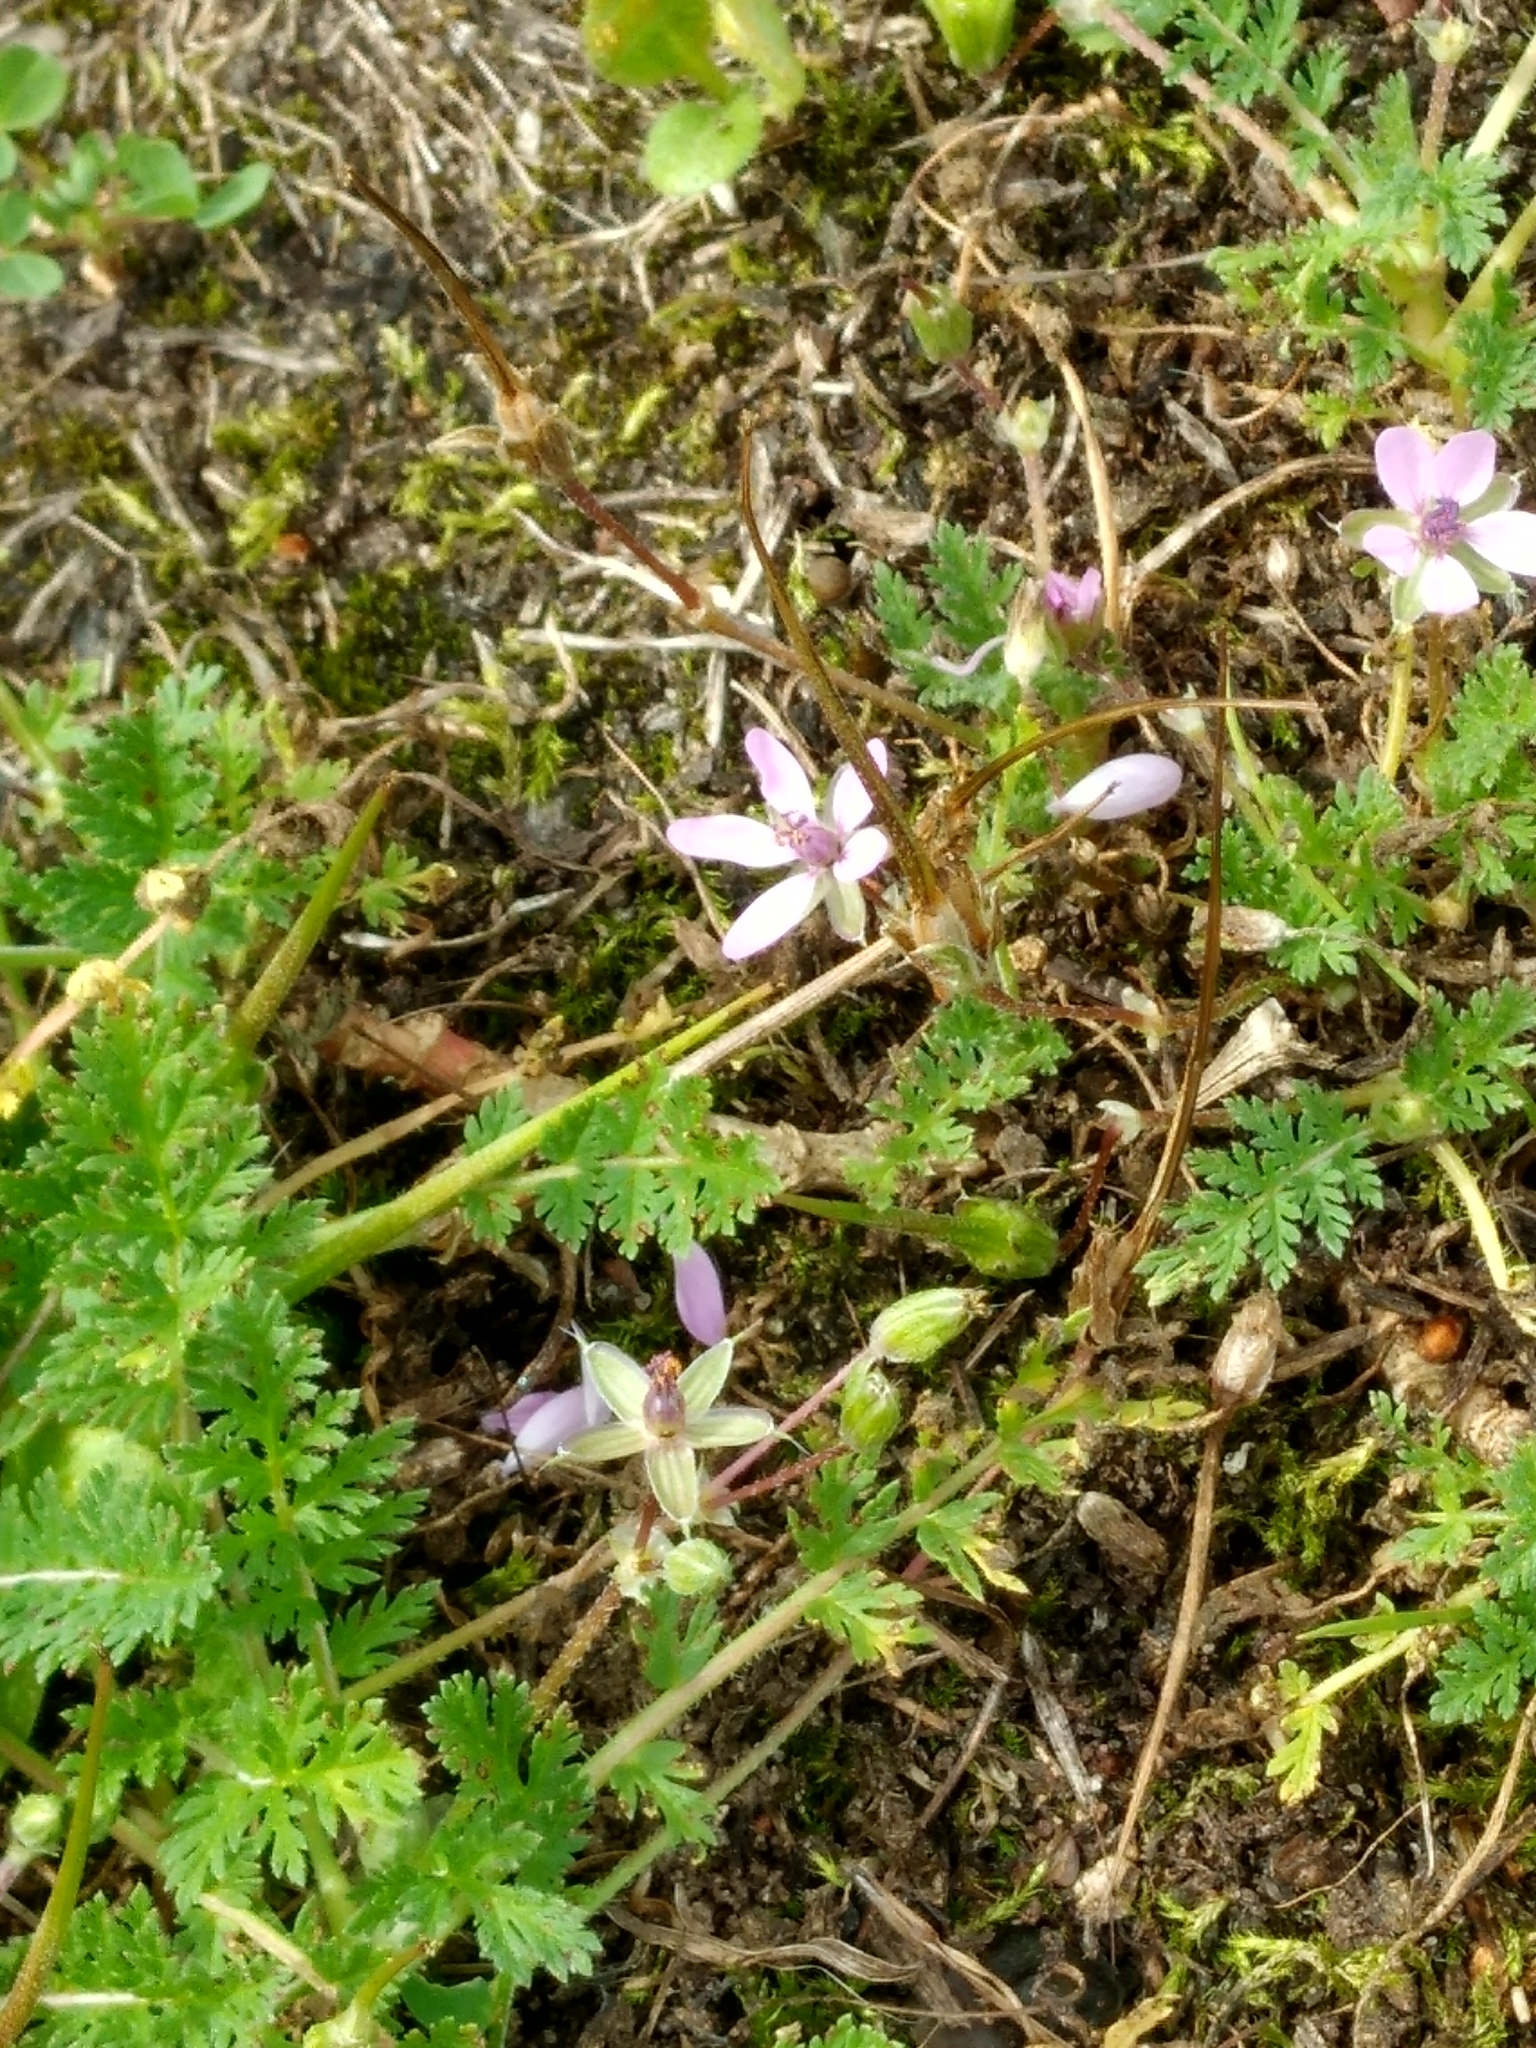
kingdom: Plantae
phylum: Tracheophyta
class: Magnoliopsida
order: Geraniales
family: Geraniaceae
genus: Erodium
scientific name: Erodium cicutarium
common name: Common stork's-bill
